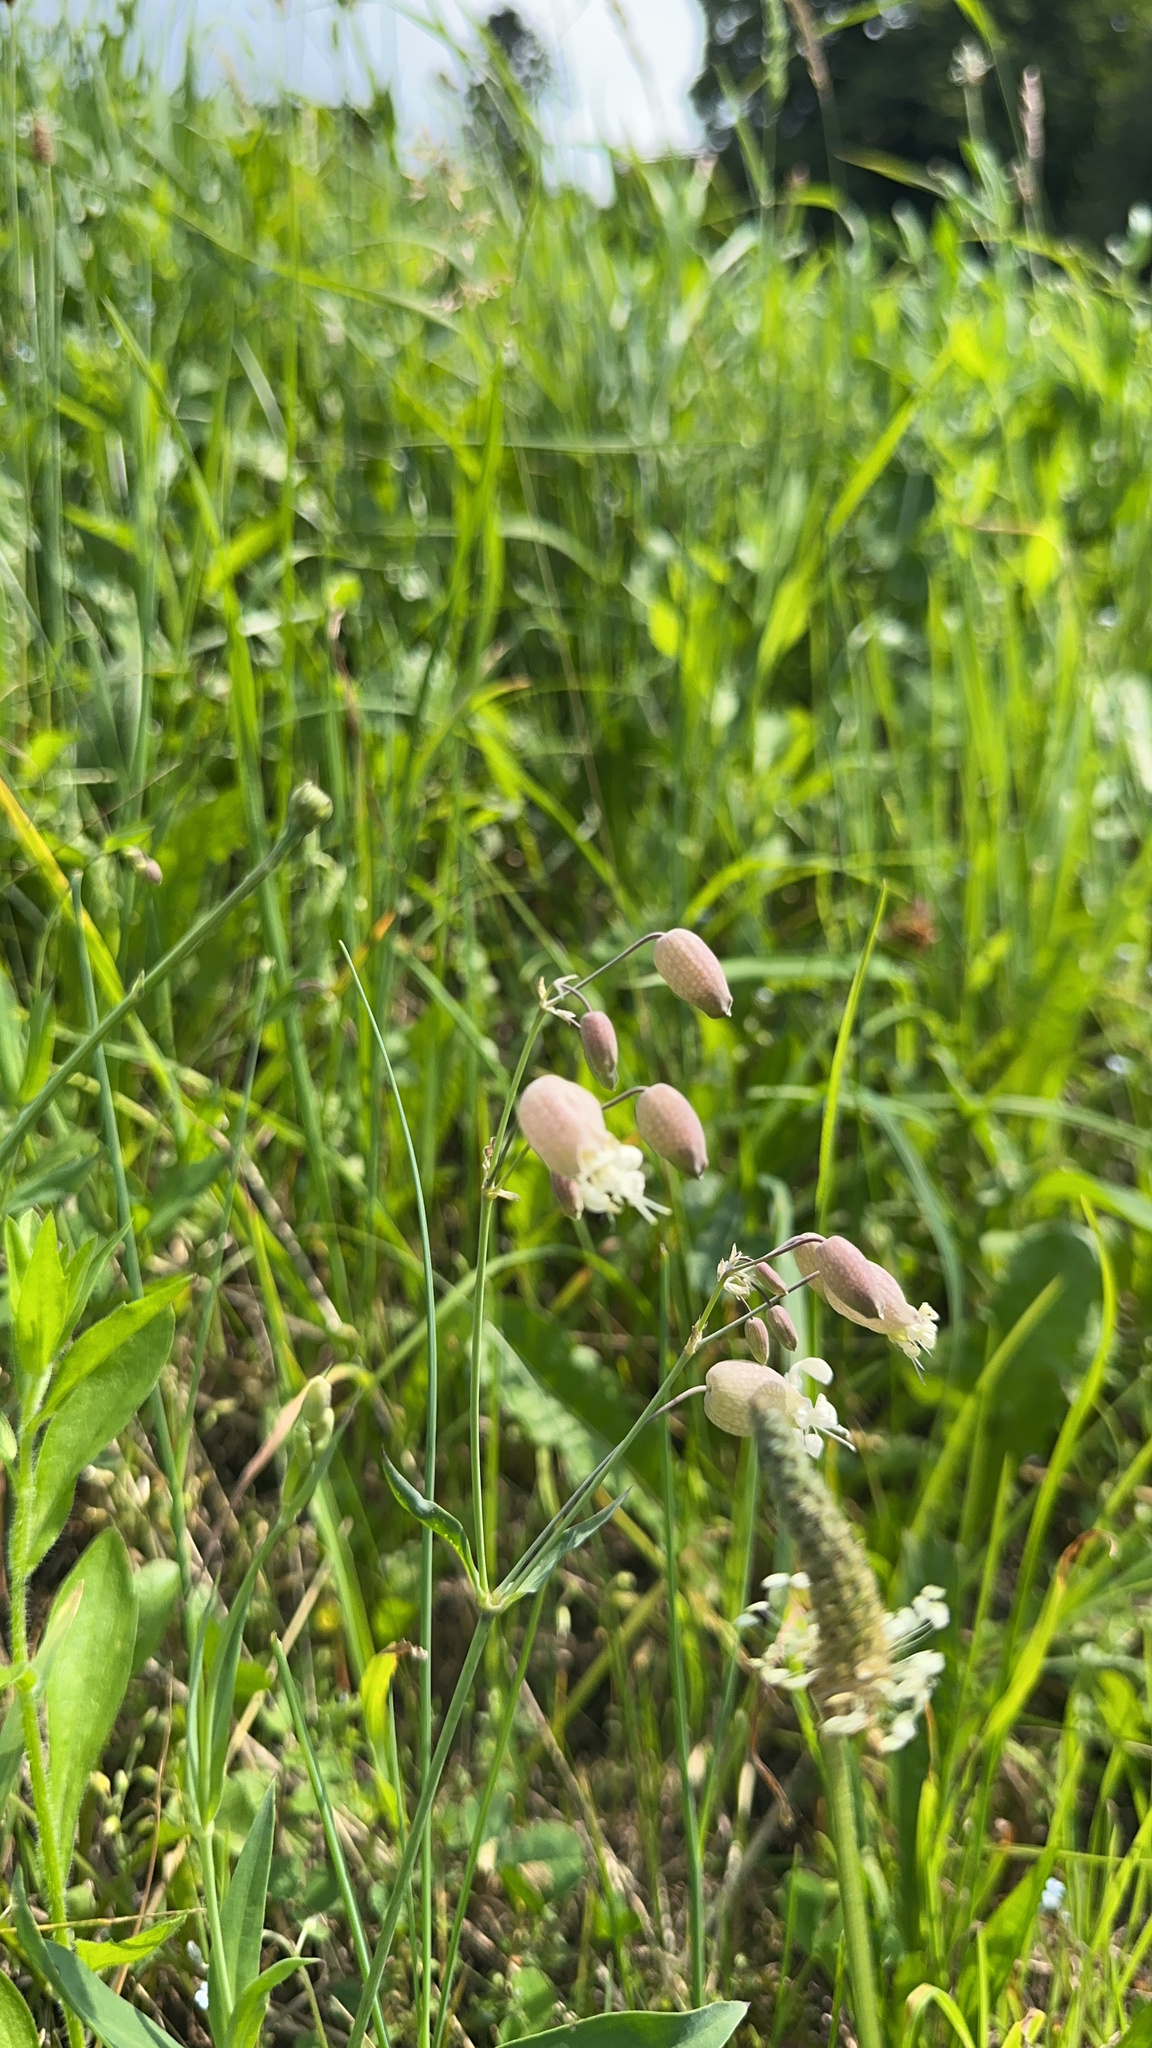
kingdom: Plantae
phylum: Tracheophyta
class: Magnoliopsida
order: Caryophyllales
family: Caryophyllaceae
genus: Silene
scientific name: Silene vulgaris
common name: Bladder campion
